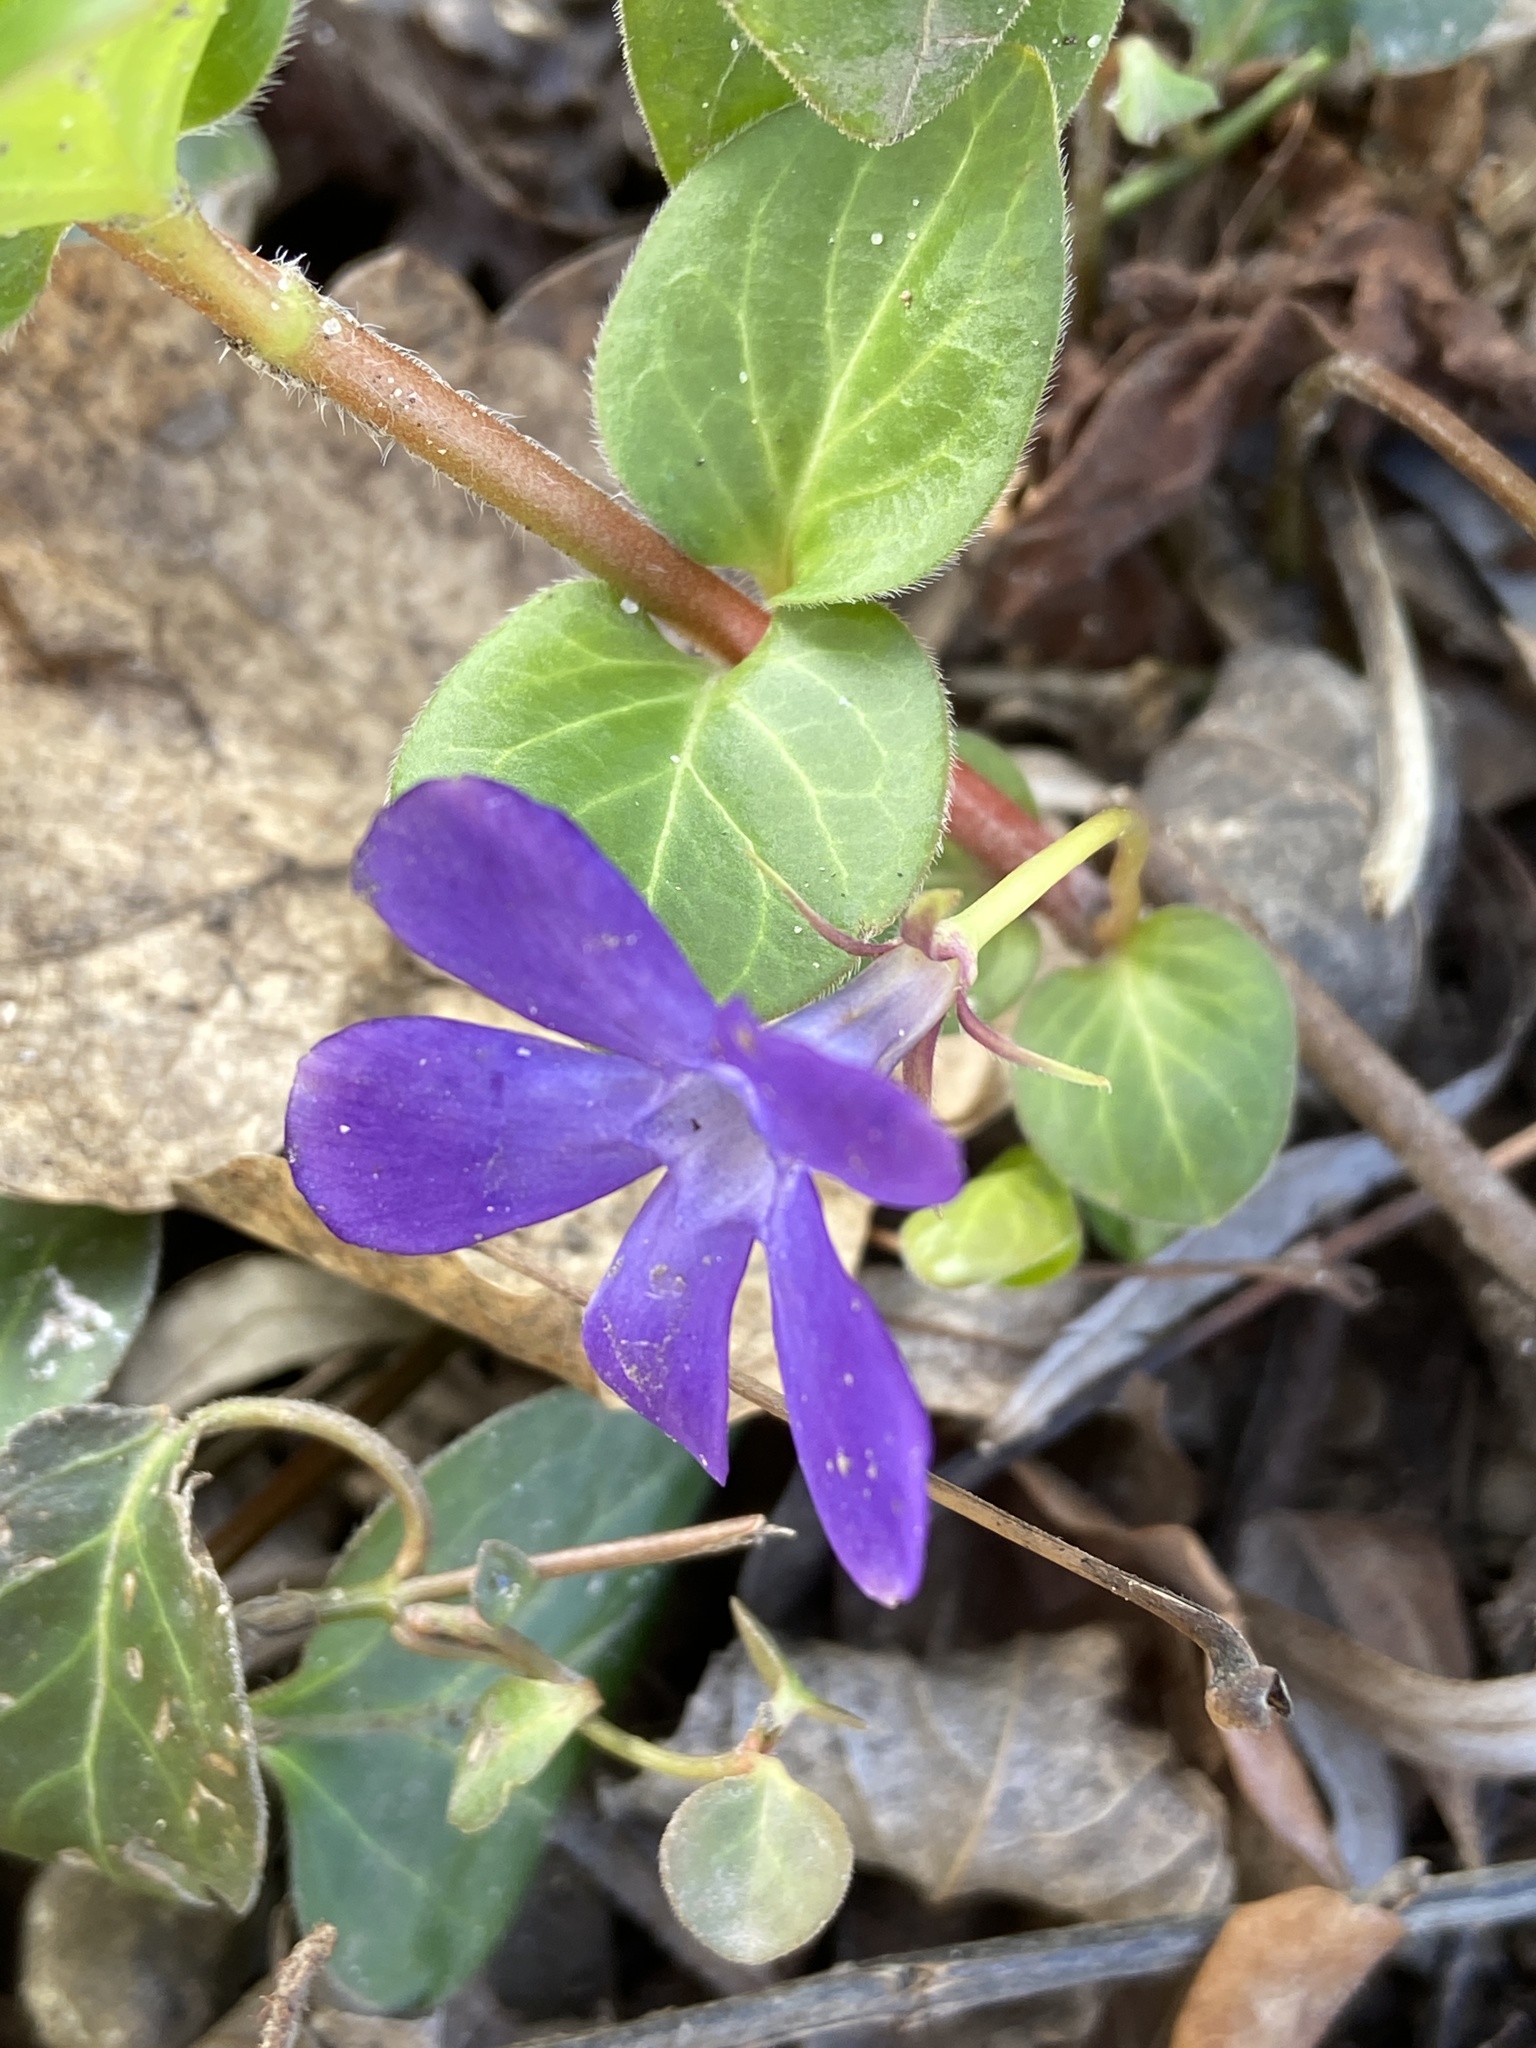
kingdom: Plantae
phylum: Tracheophyta
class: Magnoliopsida
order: Gentianales
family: Apocynaceae
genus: Vinca
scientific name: Vinca major
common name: Greater periwinkle
